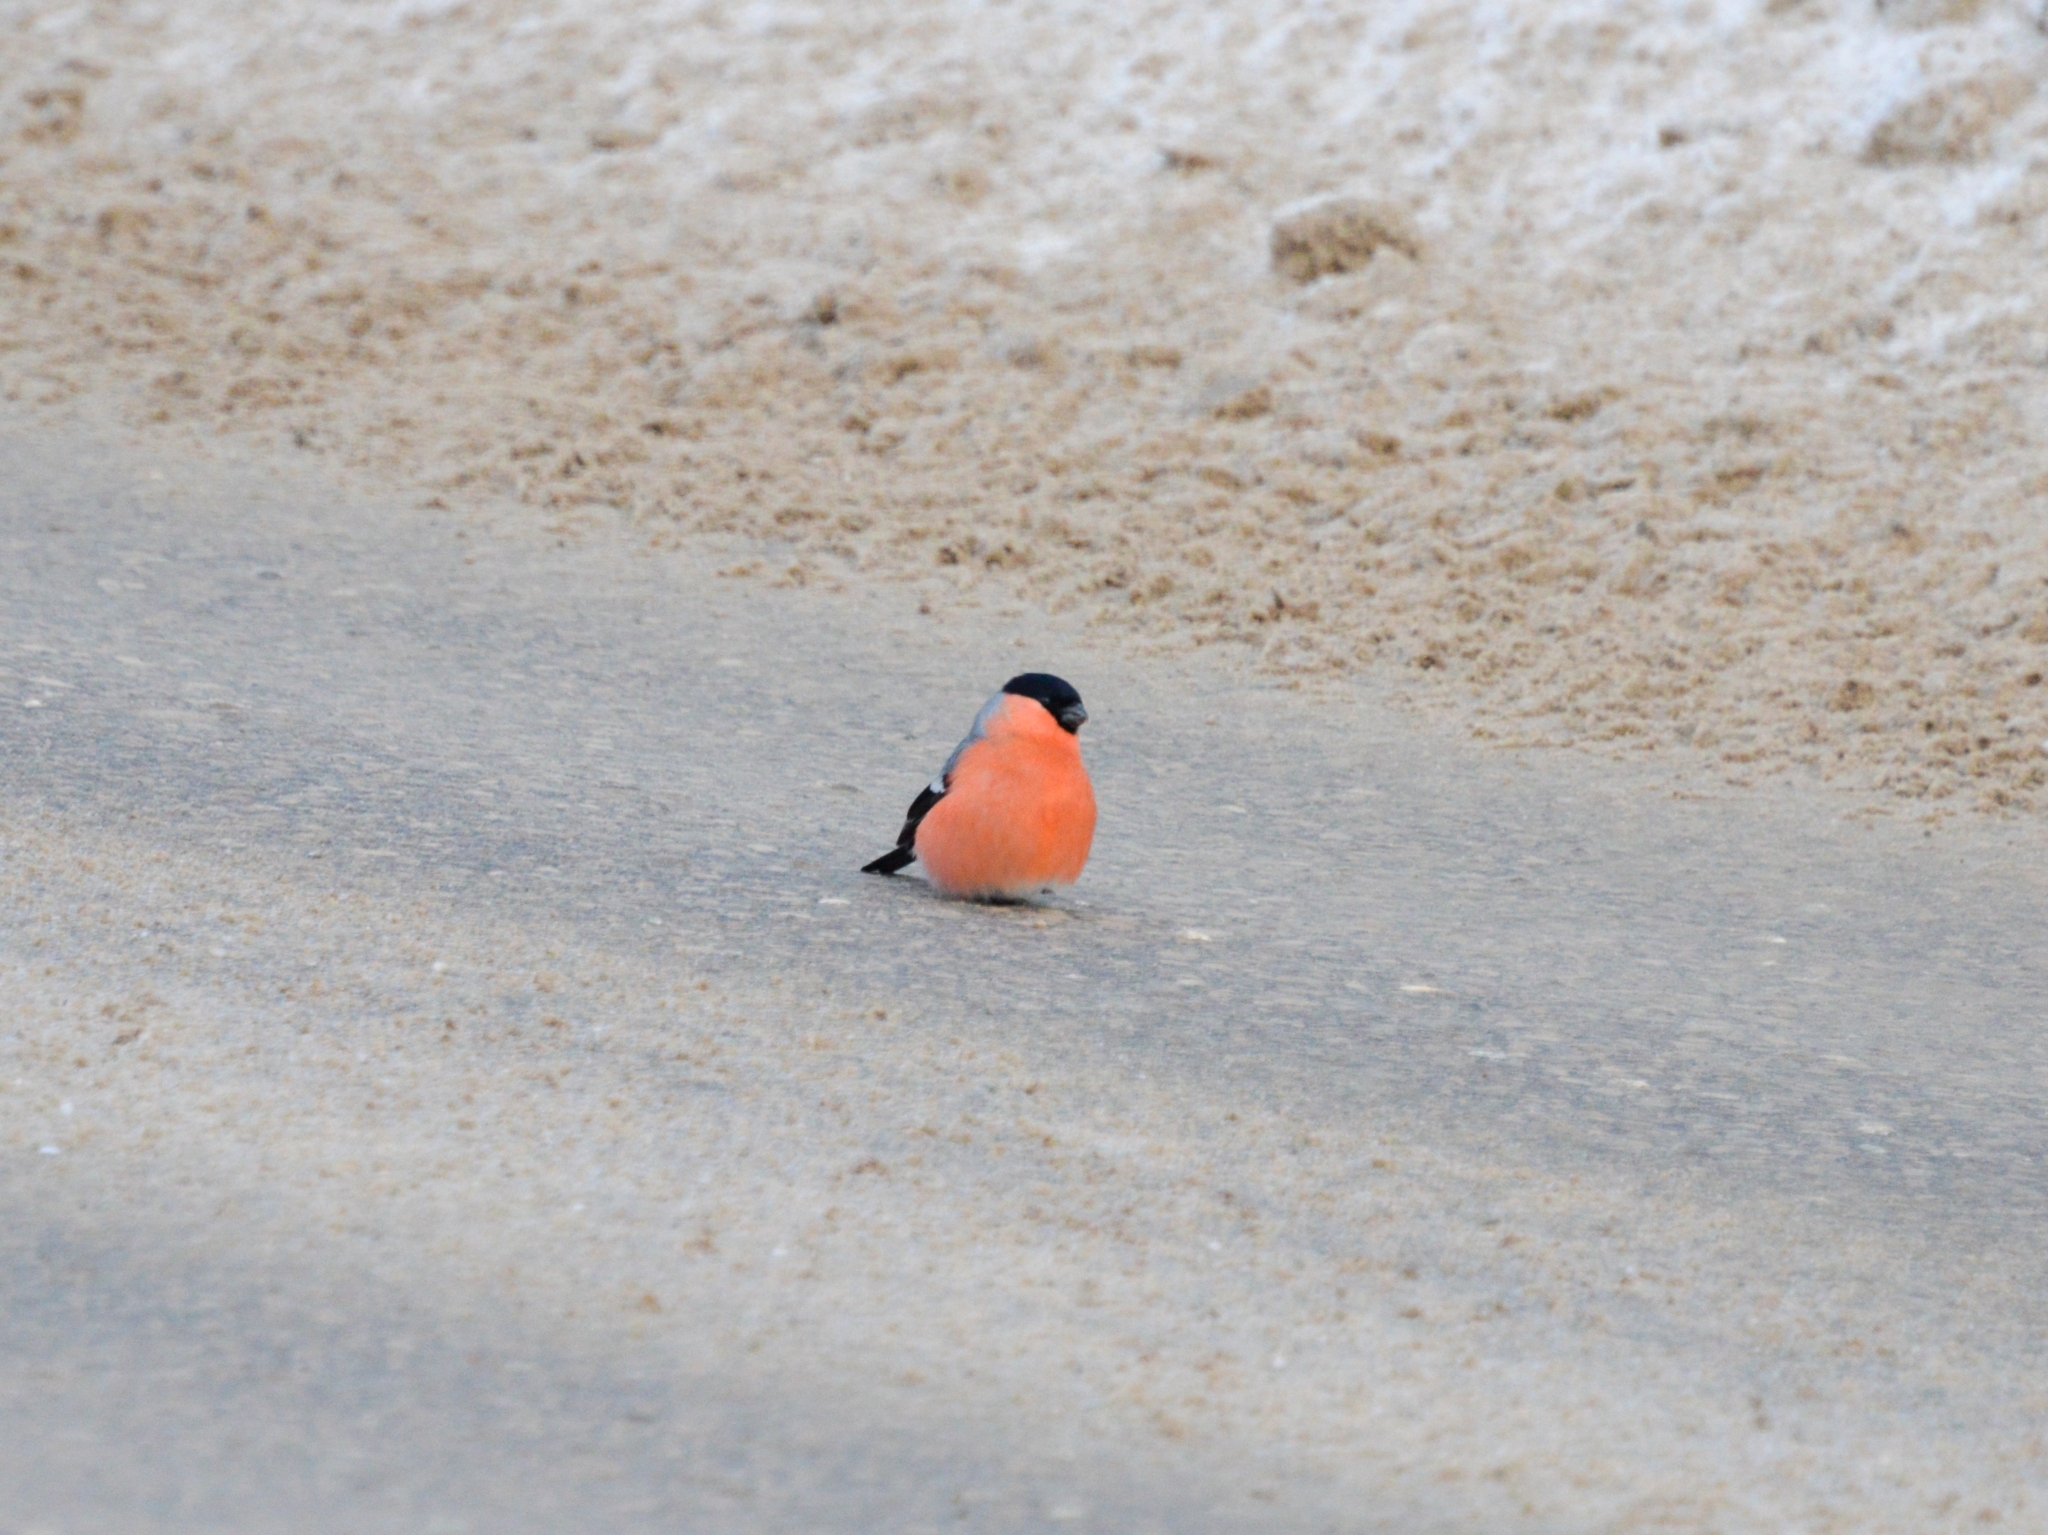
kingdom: Animalia
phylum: Chordata
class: Aves
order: Passeriformes
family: Fringillidae
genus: Pyrrhula
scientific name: Pyrrhula pyrrhula
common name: Eurasian bullfinch
